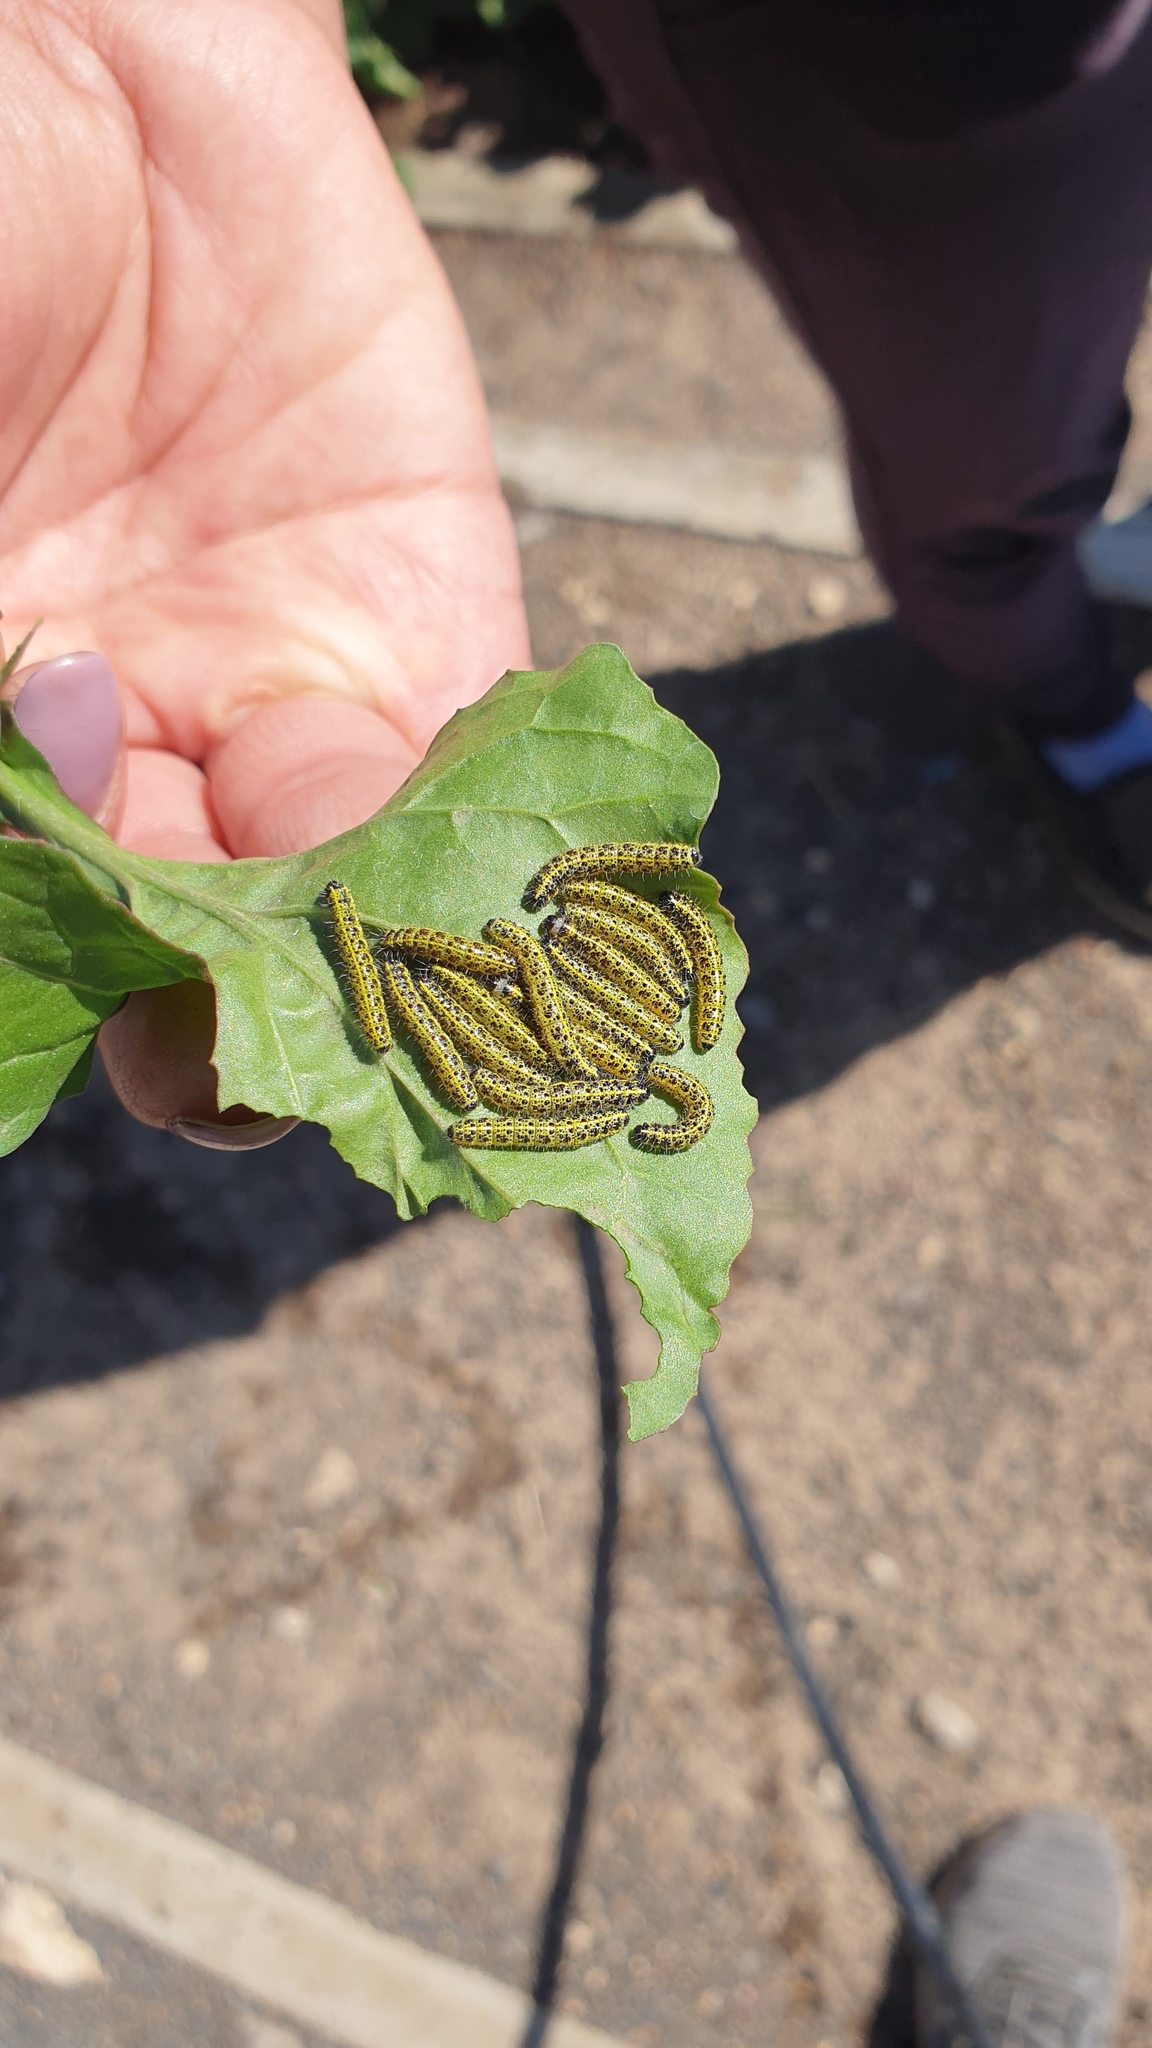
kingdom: Animalia
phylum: Arthropoda
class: Insecta
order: Lepidoptera
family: Pieridae
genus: Pieris
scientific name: Pieris brassicae
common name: Large white
